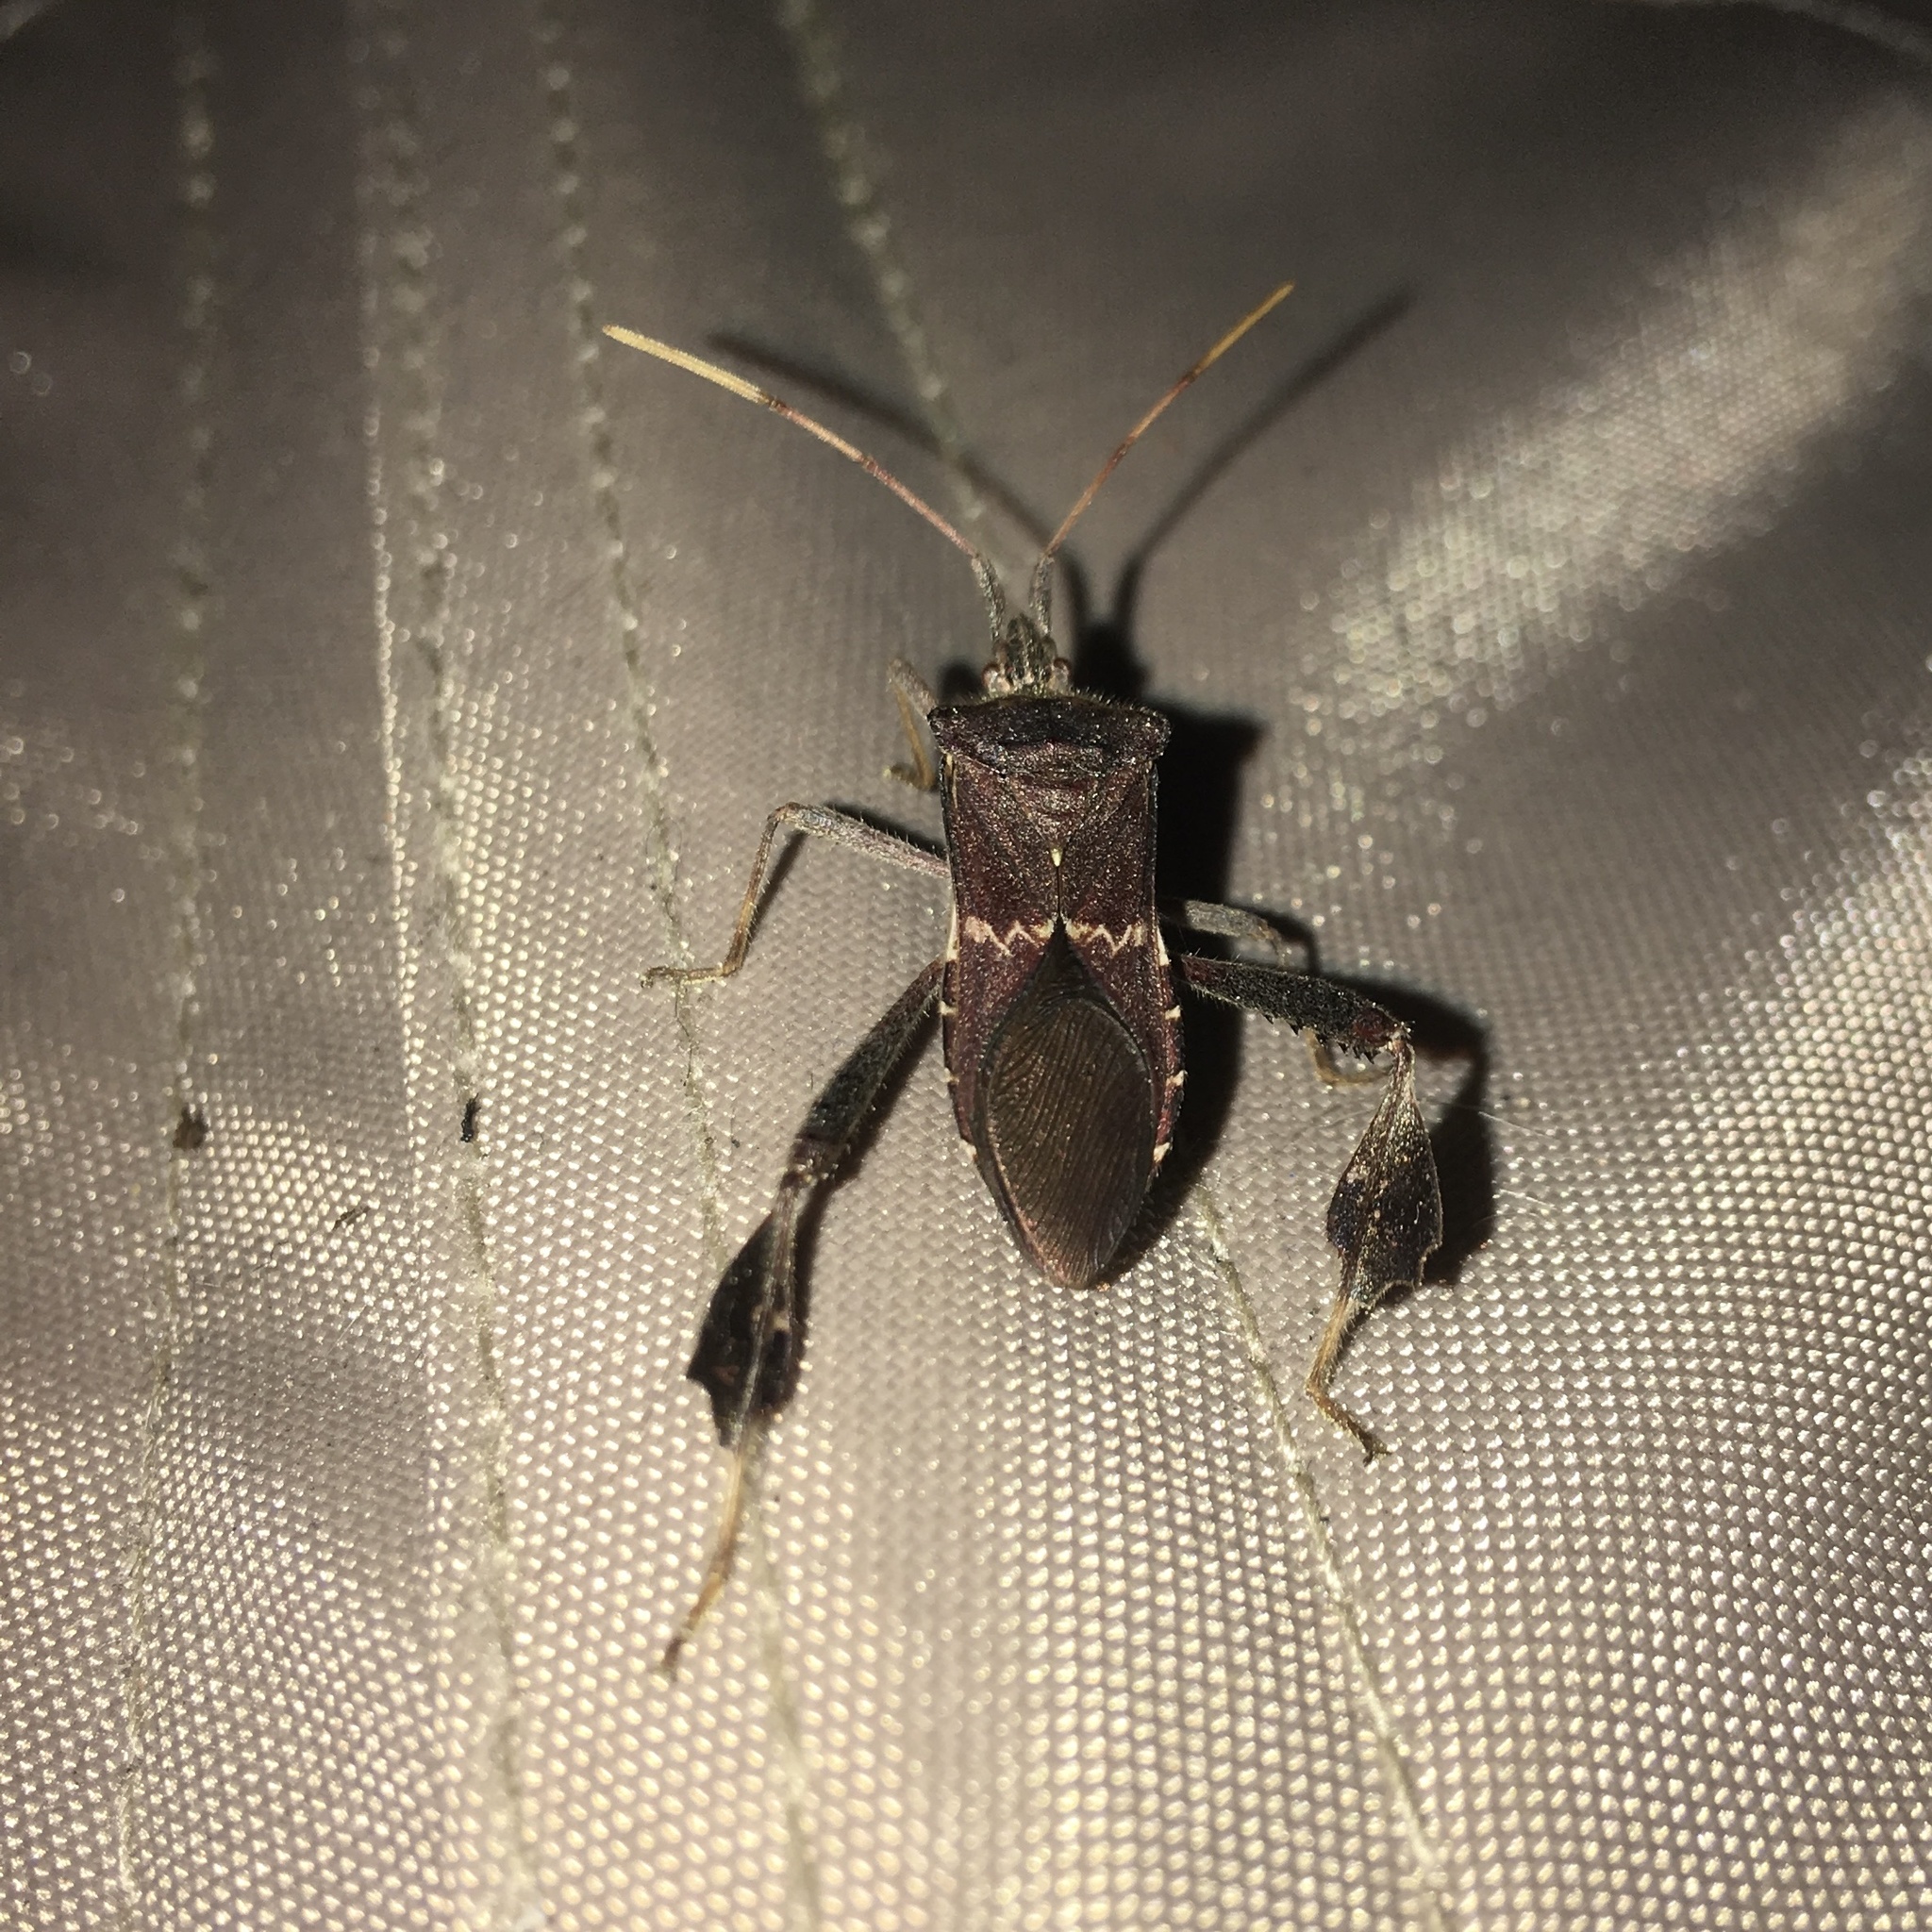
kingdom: Animalia
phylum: Arthropoda
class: Insecta
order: Hemiptera
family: Coreidae
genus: Leptoglossus
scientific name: Leptoglossus zonatus
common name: Large-legged bug
